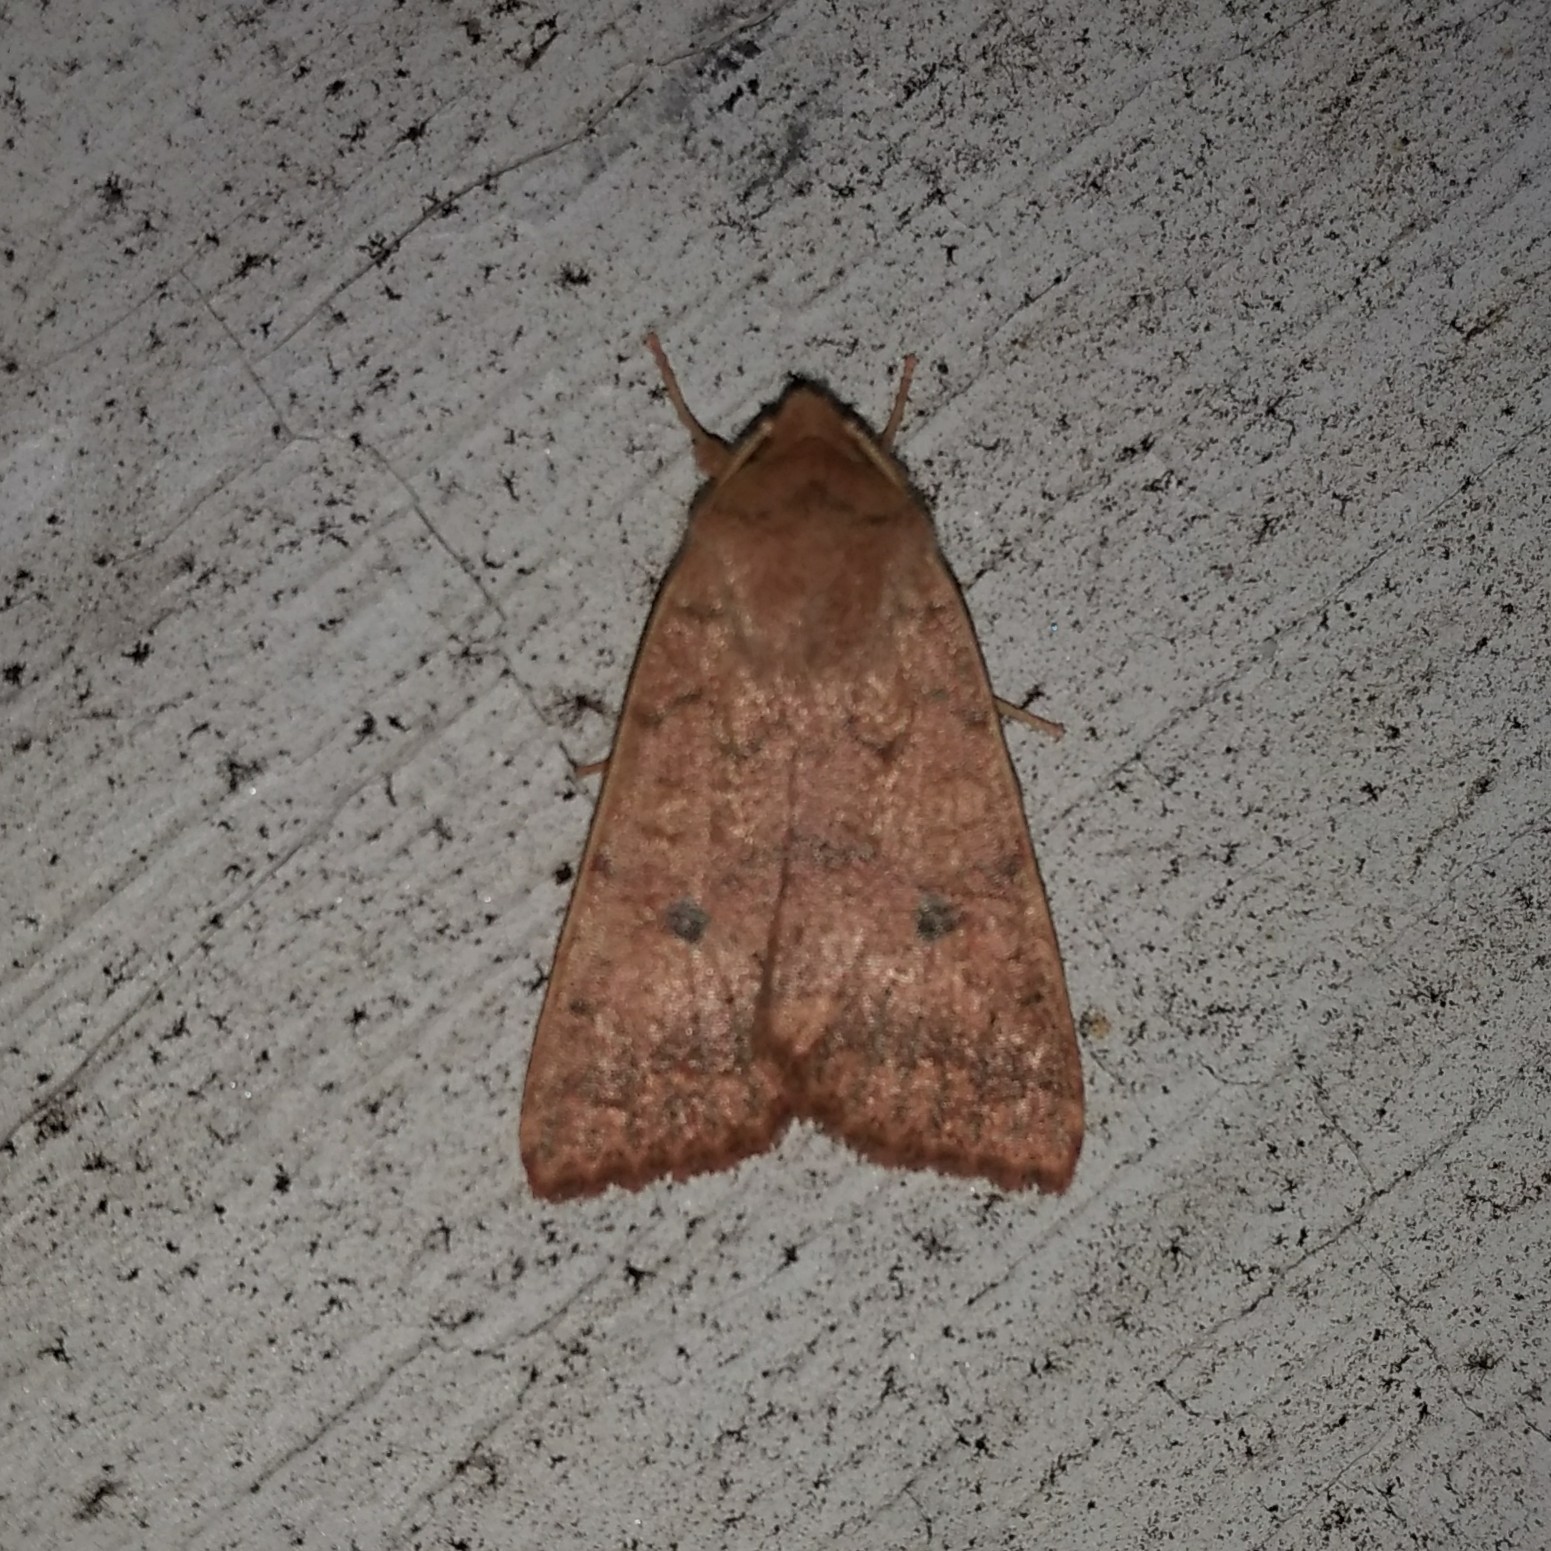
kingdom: Animalia
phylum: Arthropoda
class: Insecta
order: Lepidoptera
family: Noctuidae
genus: Agrochola
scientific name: Agrochola bicolorago
